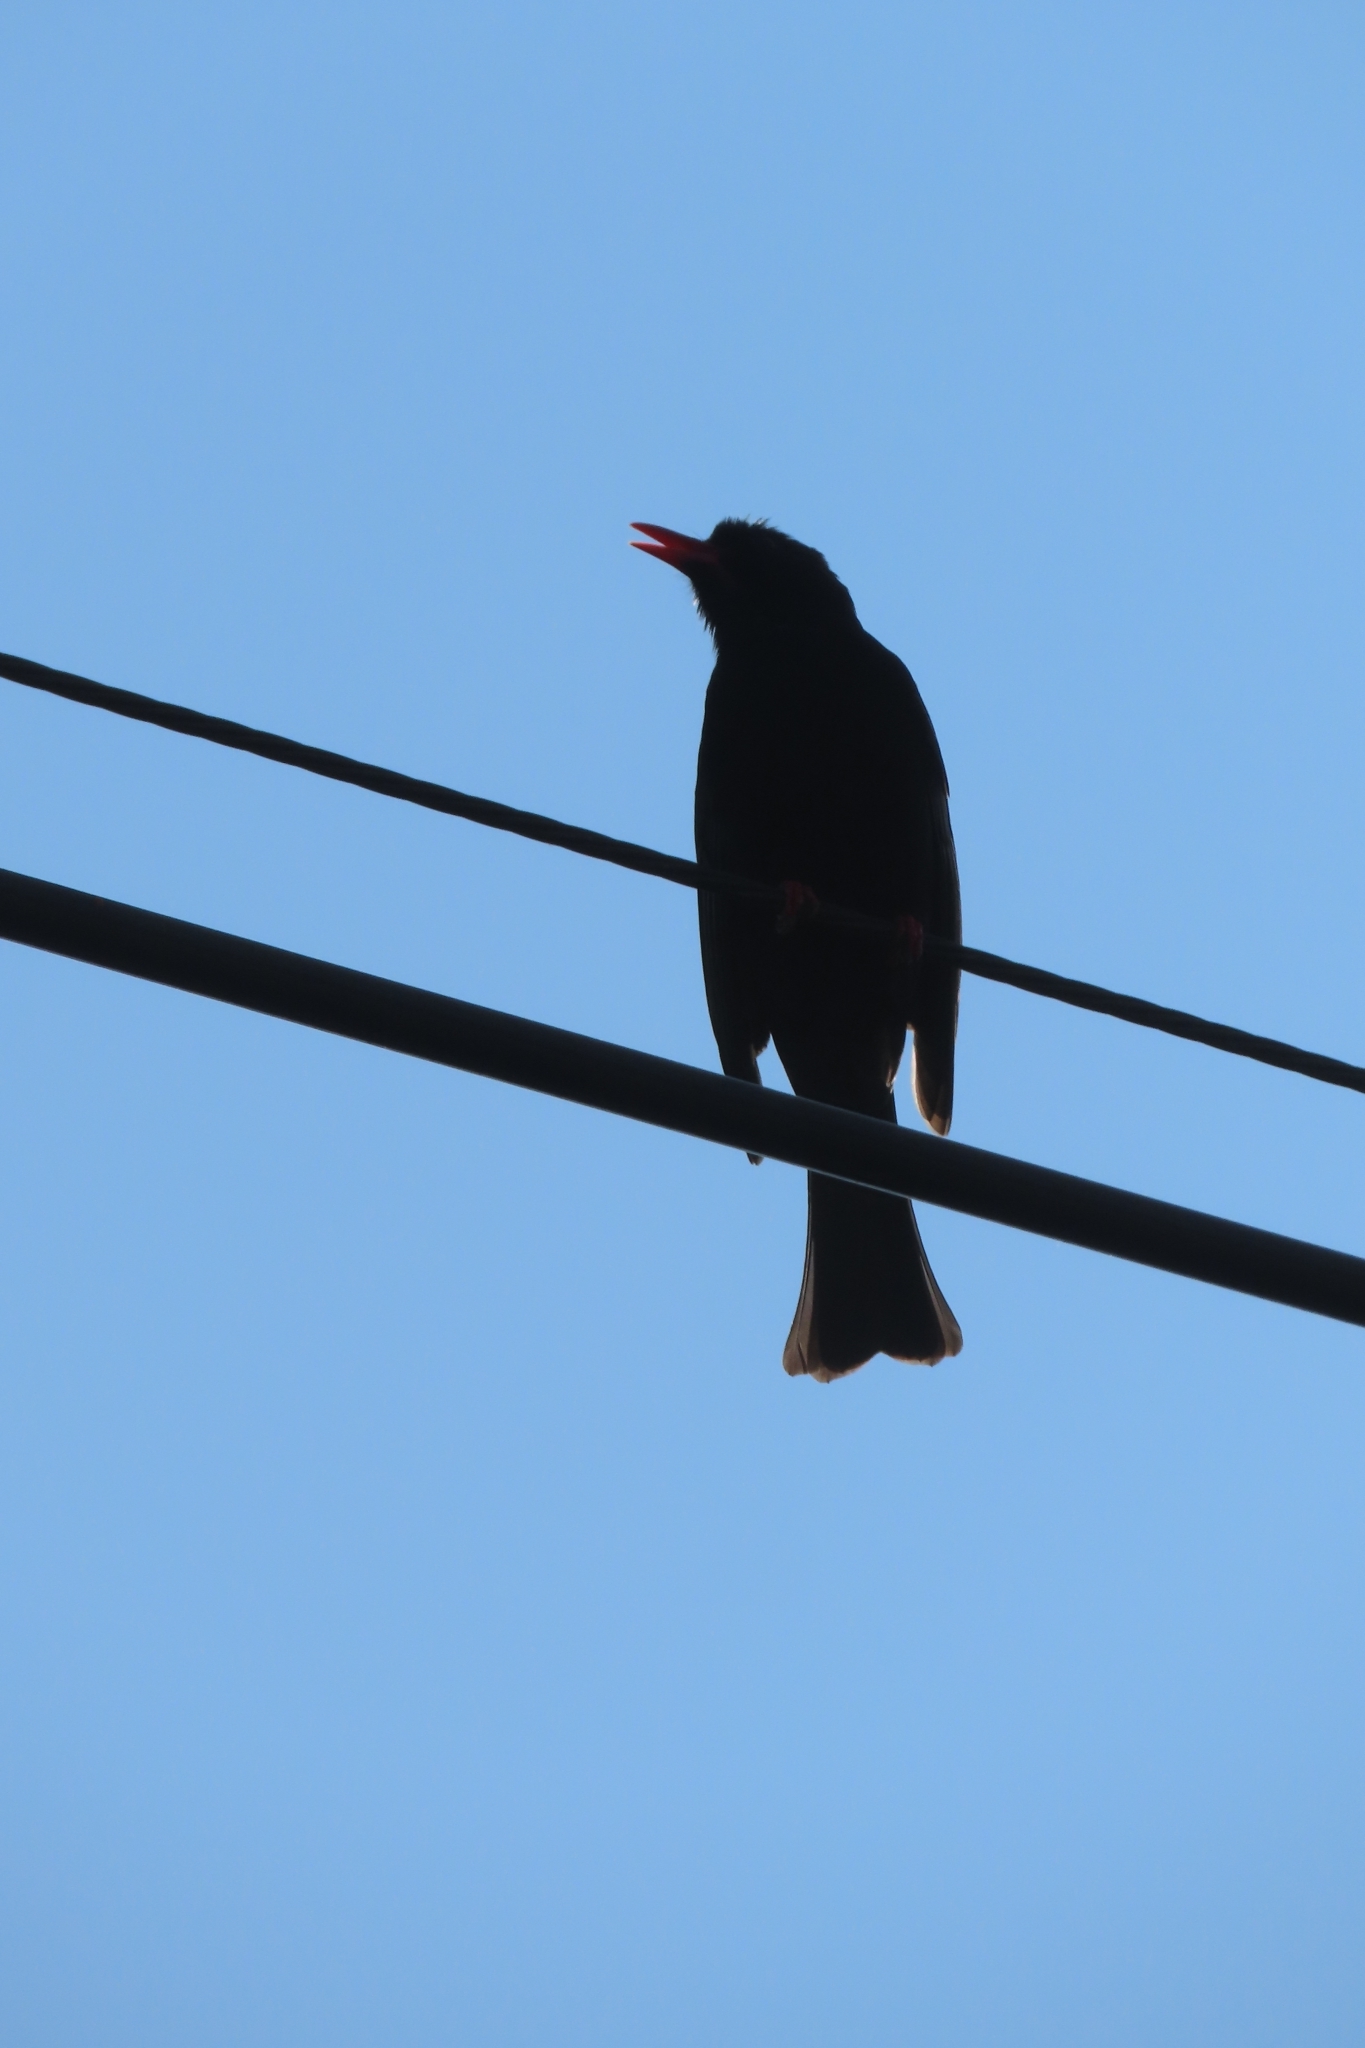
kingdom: Animalia
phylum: Chordata
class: Aves
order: Passeriformes
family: Pycnonotidae
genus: Hypsipetes
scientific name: Hypsipetes leucocephalus
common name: Black bulbul
